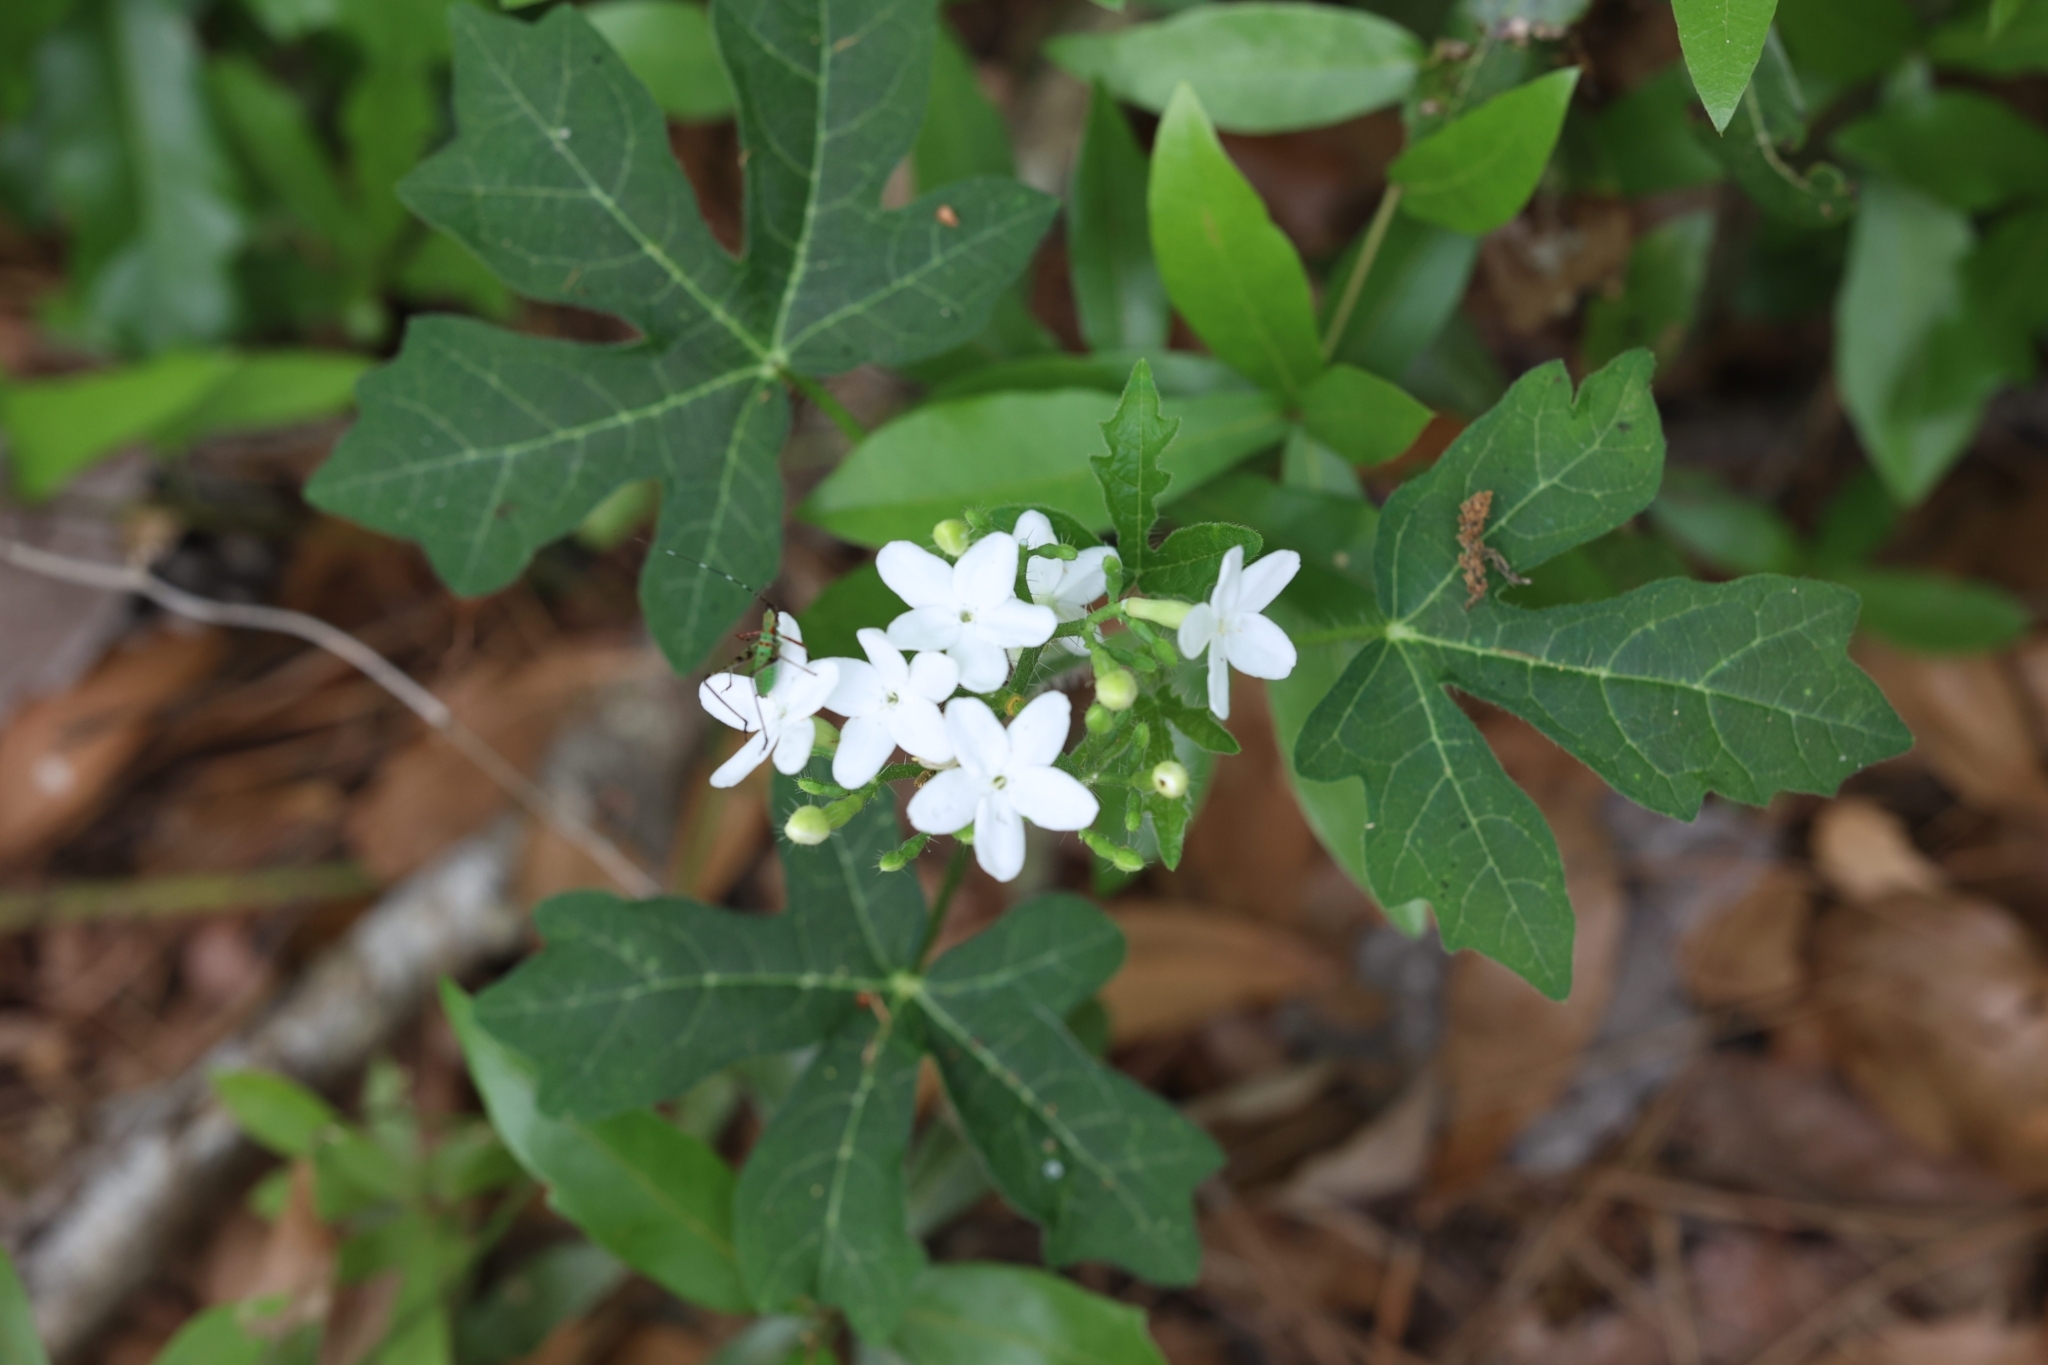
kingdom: Plantae
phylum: Tracheophyta
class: Magnoliopsida
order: Malpighiales
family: Euphorbiaceae
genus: Cnidoscolus
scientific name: Cnidoscolus stimulosus
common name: Bull-nettle
